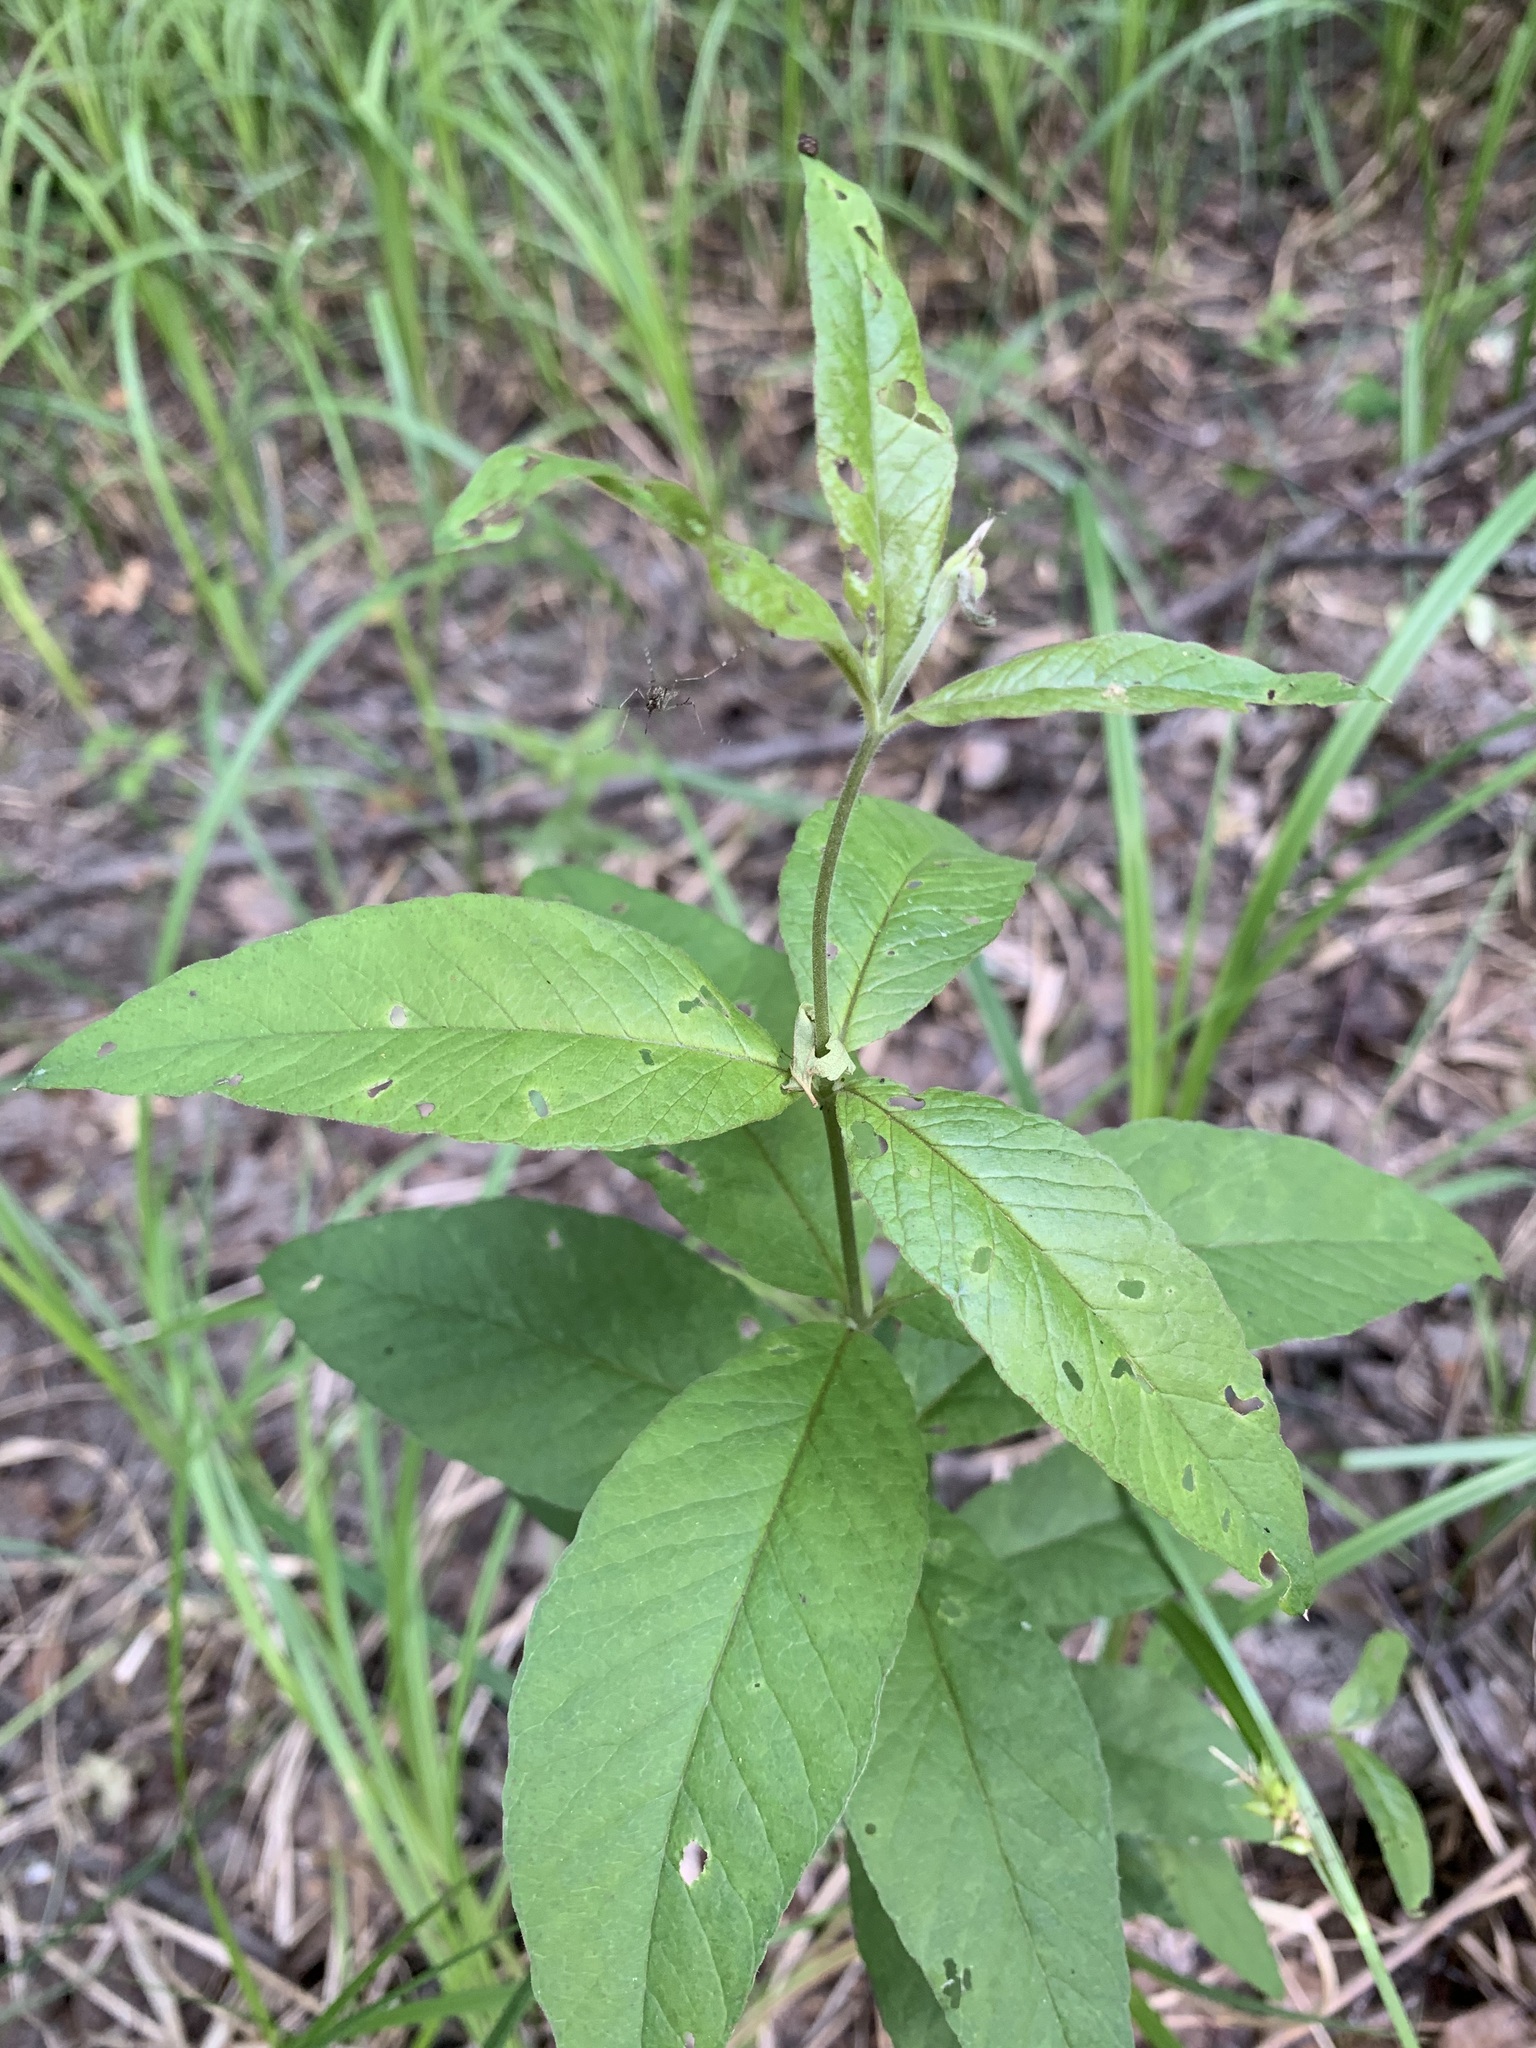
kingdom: Plantae
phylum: Tracheophyta
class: Magnoliopsida
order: Ericales
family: Primulaceae
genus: Lysimachia
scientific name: Lysimachia vulgaris
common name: Yellow loosestrife
